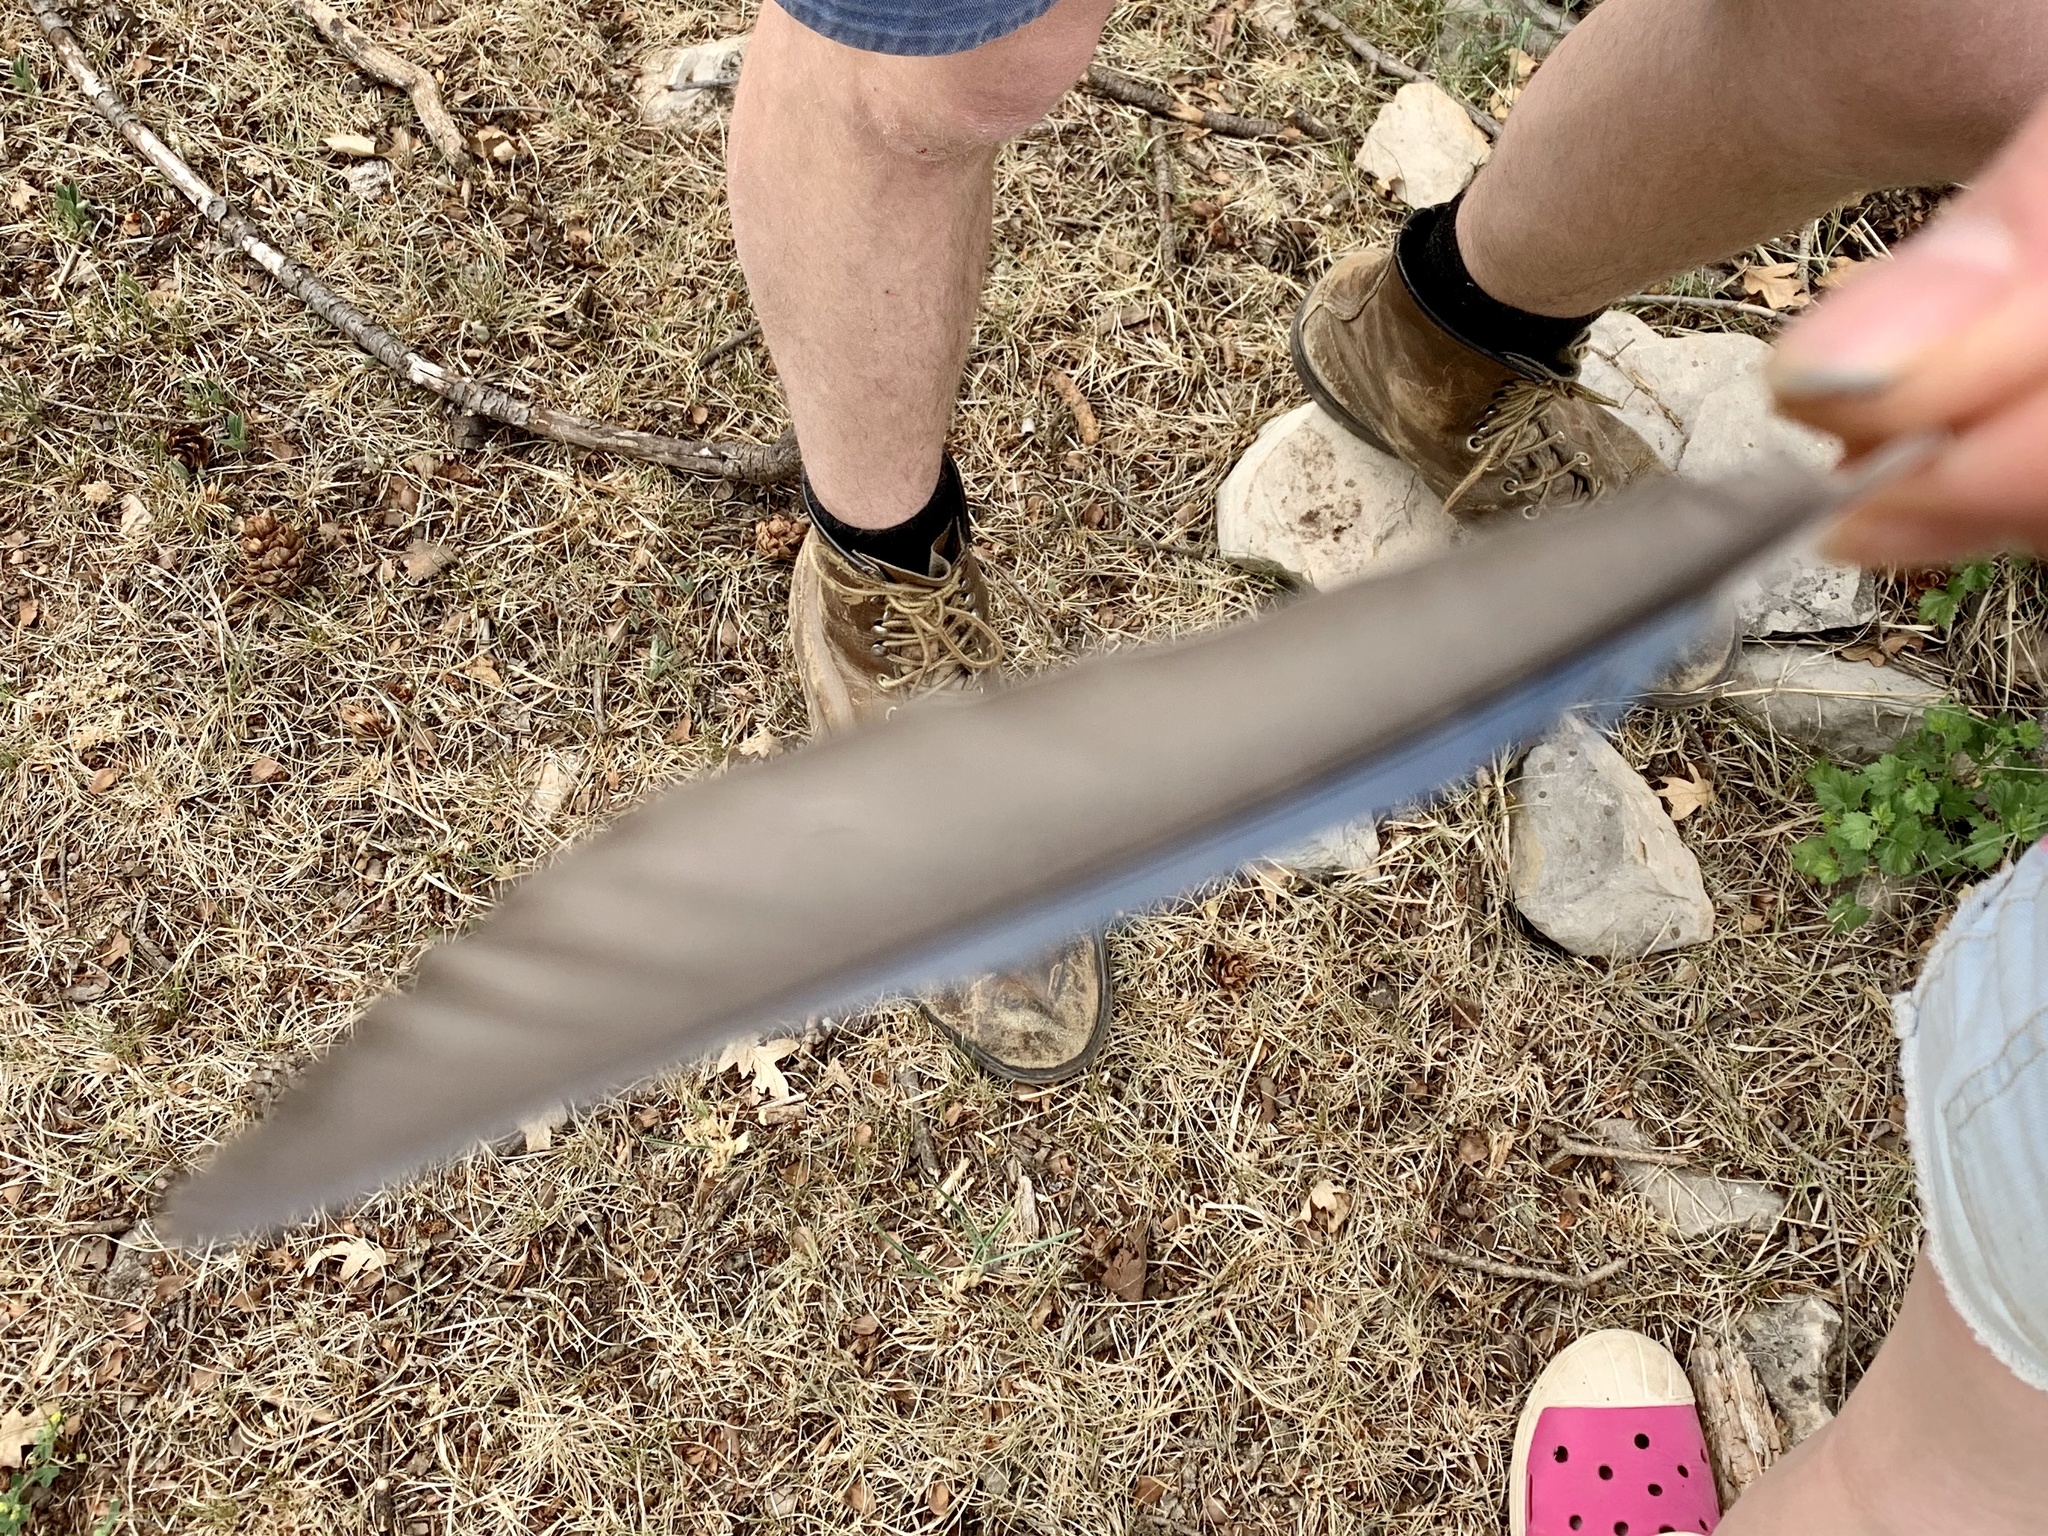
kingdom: Animalia
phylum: Chordata
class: Aves
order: Passeriformes
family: Corvidae
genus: Cyanocitta
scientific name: Cyanocitta stelleri
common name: Steller's jay
